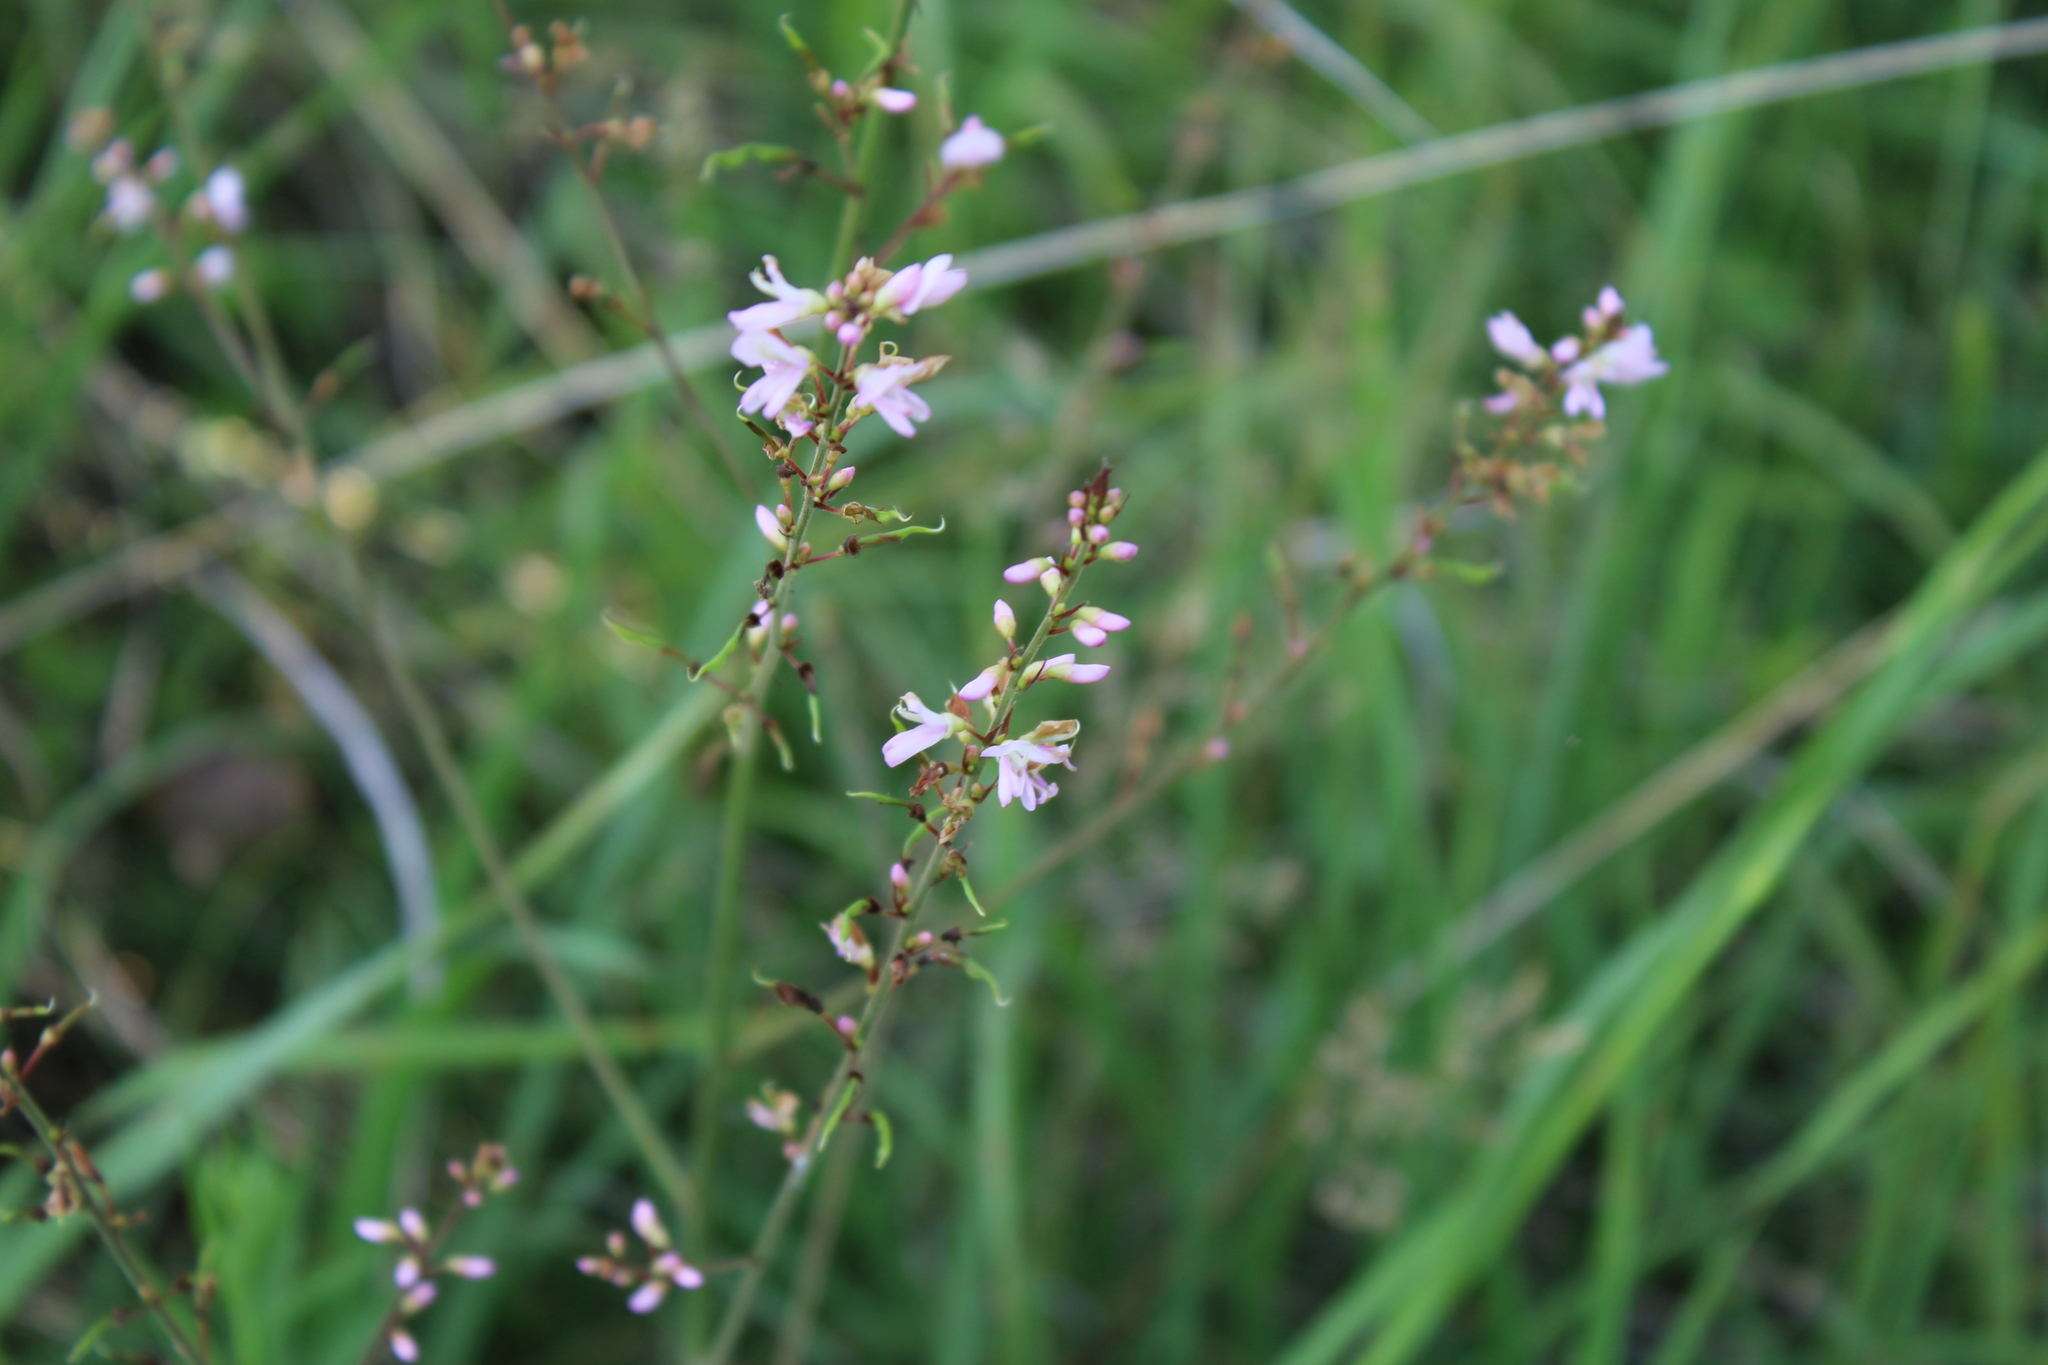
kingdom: Plantae
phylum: Tracheophyta
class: Magnoliopsida
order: Fabales
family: Fabaceae
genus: Hylodesmum
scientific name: Hylodesmum glutinosum
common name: Clustered-leaved tick-trefoil
